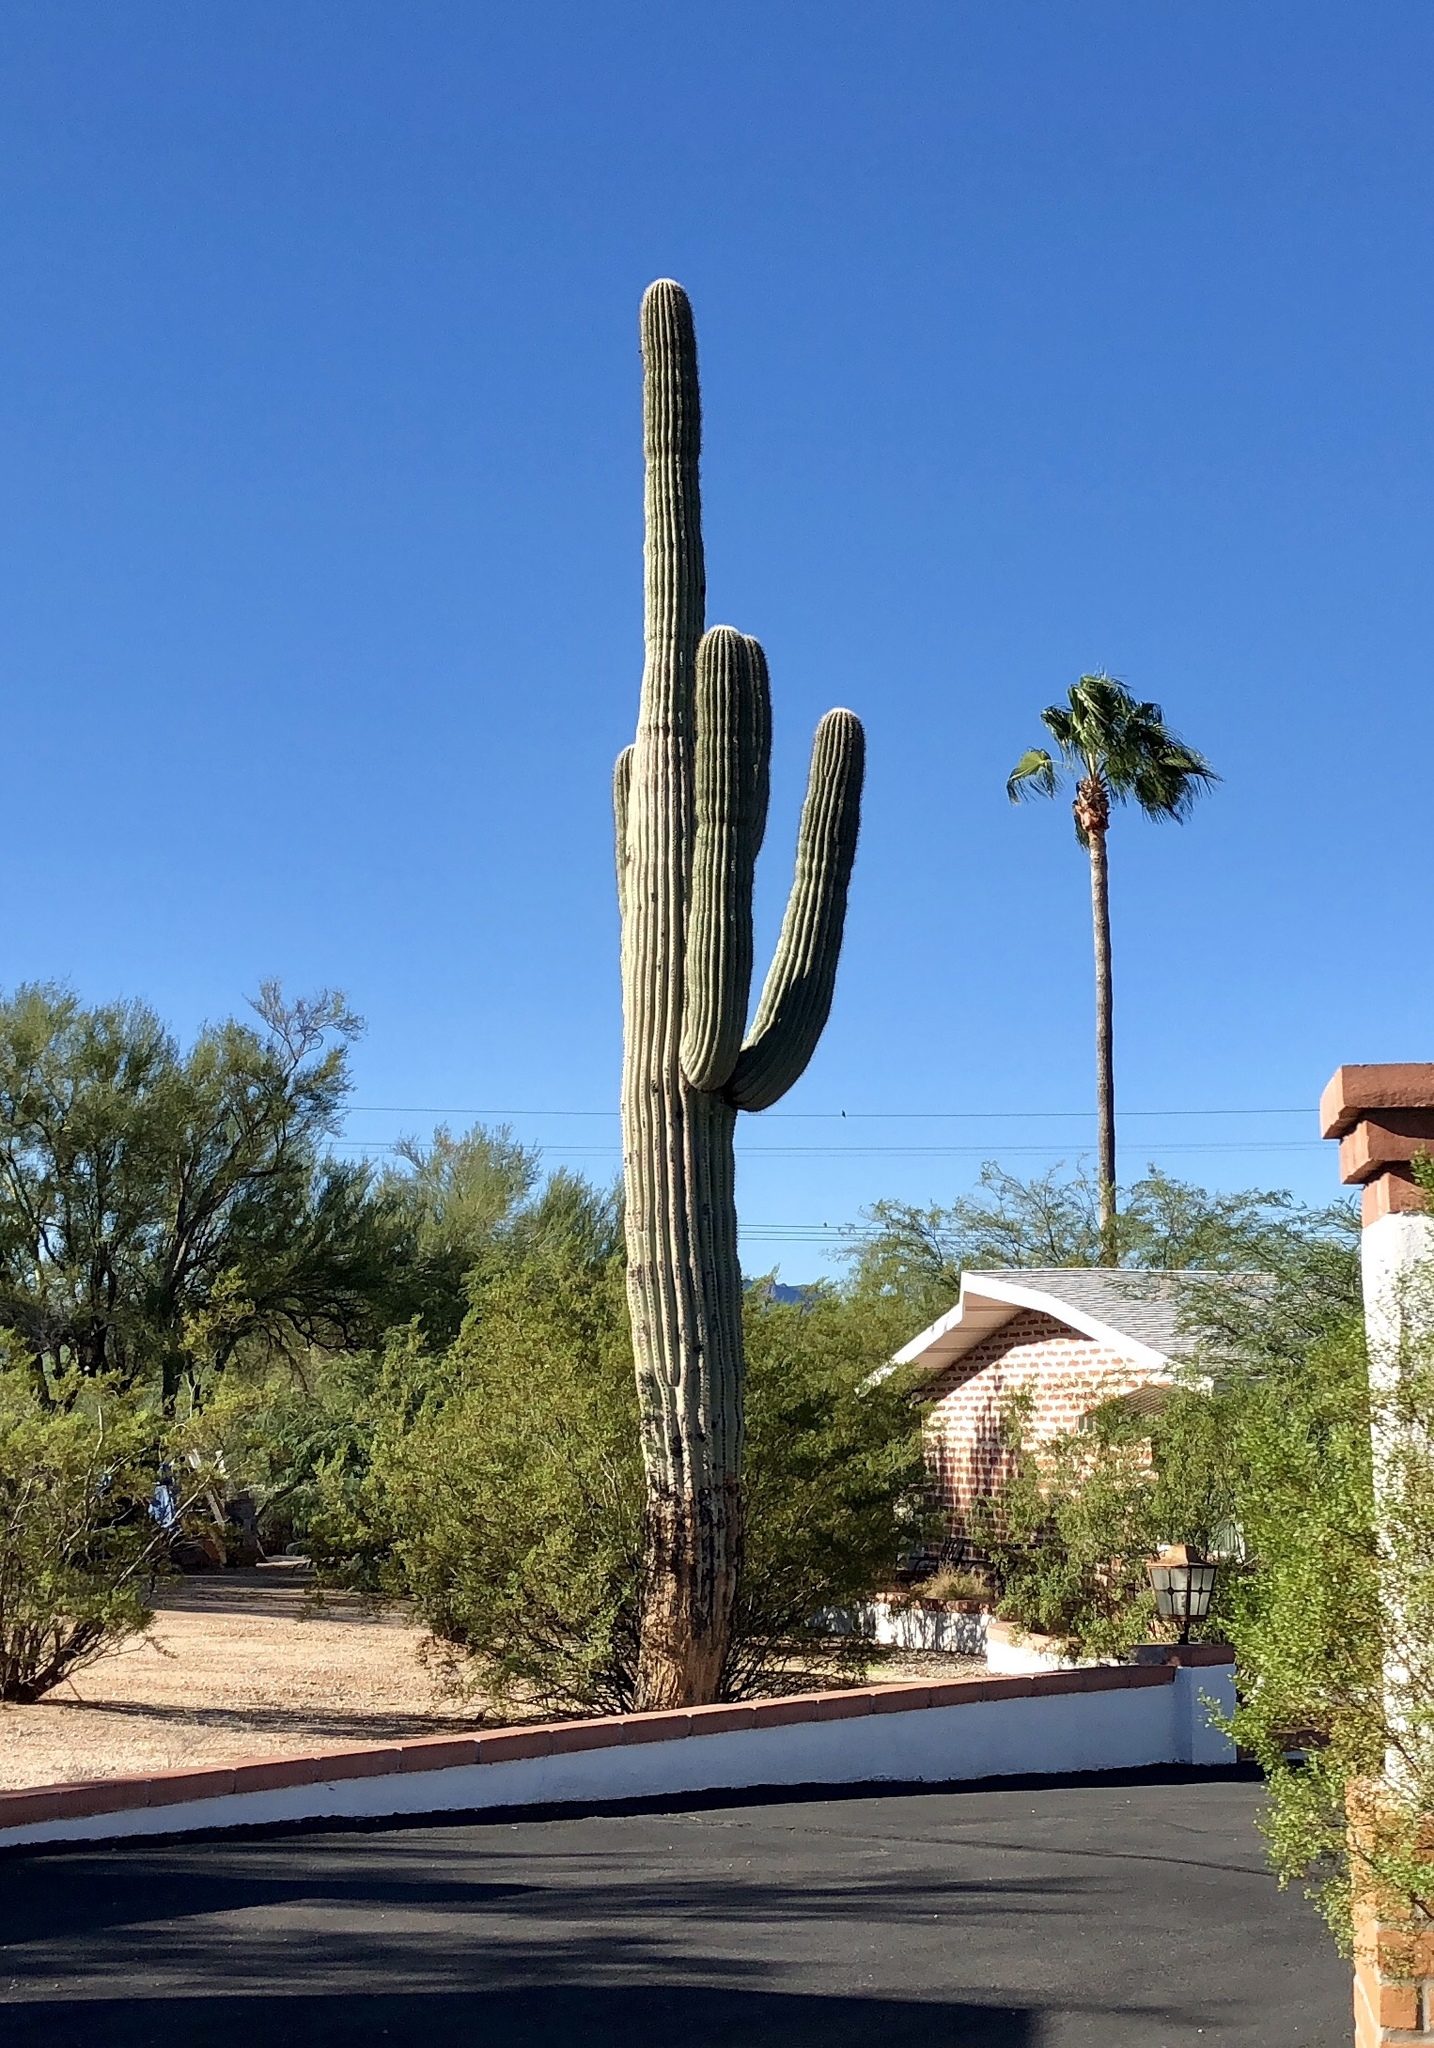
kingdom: Plantae
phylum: Tracheophyta
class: Magnoliopsida
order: Caryophyllales
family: Cactaceae
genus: Carnegiea
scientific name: Carnegiea gigantea
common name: Saguaro
